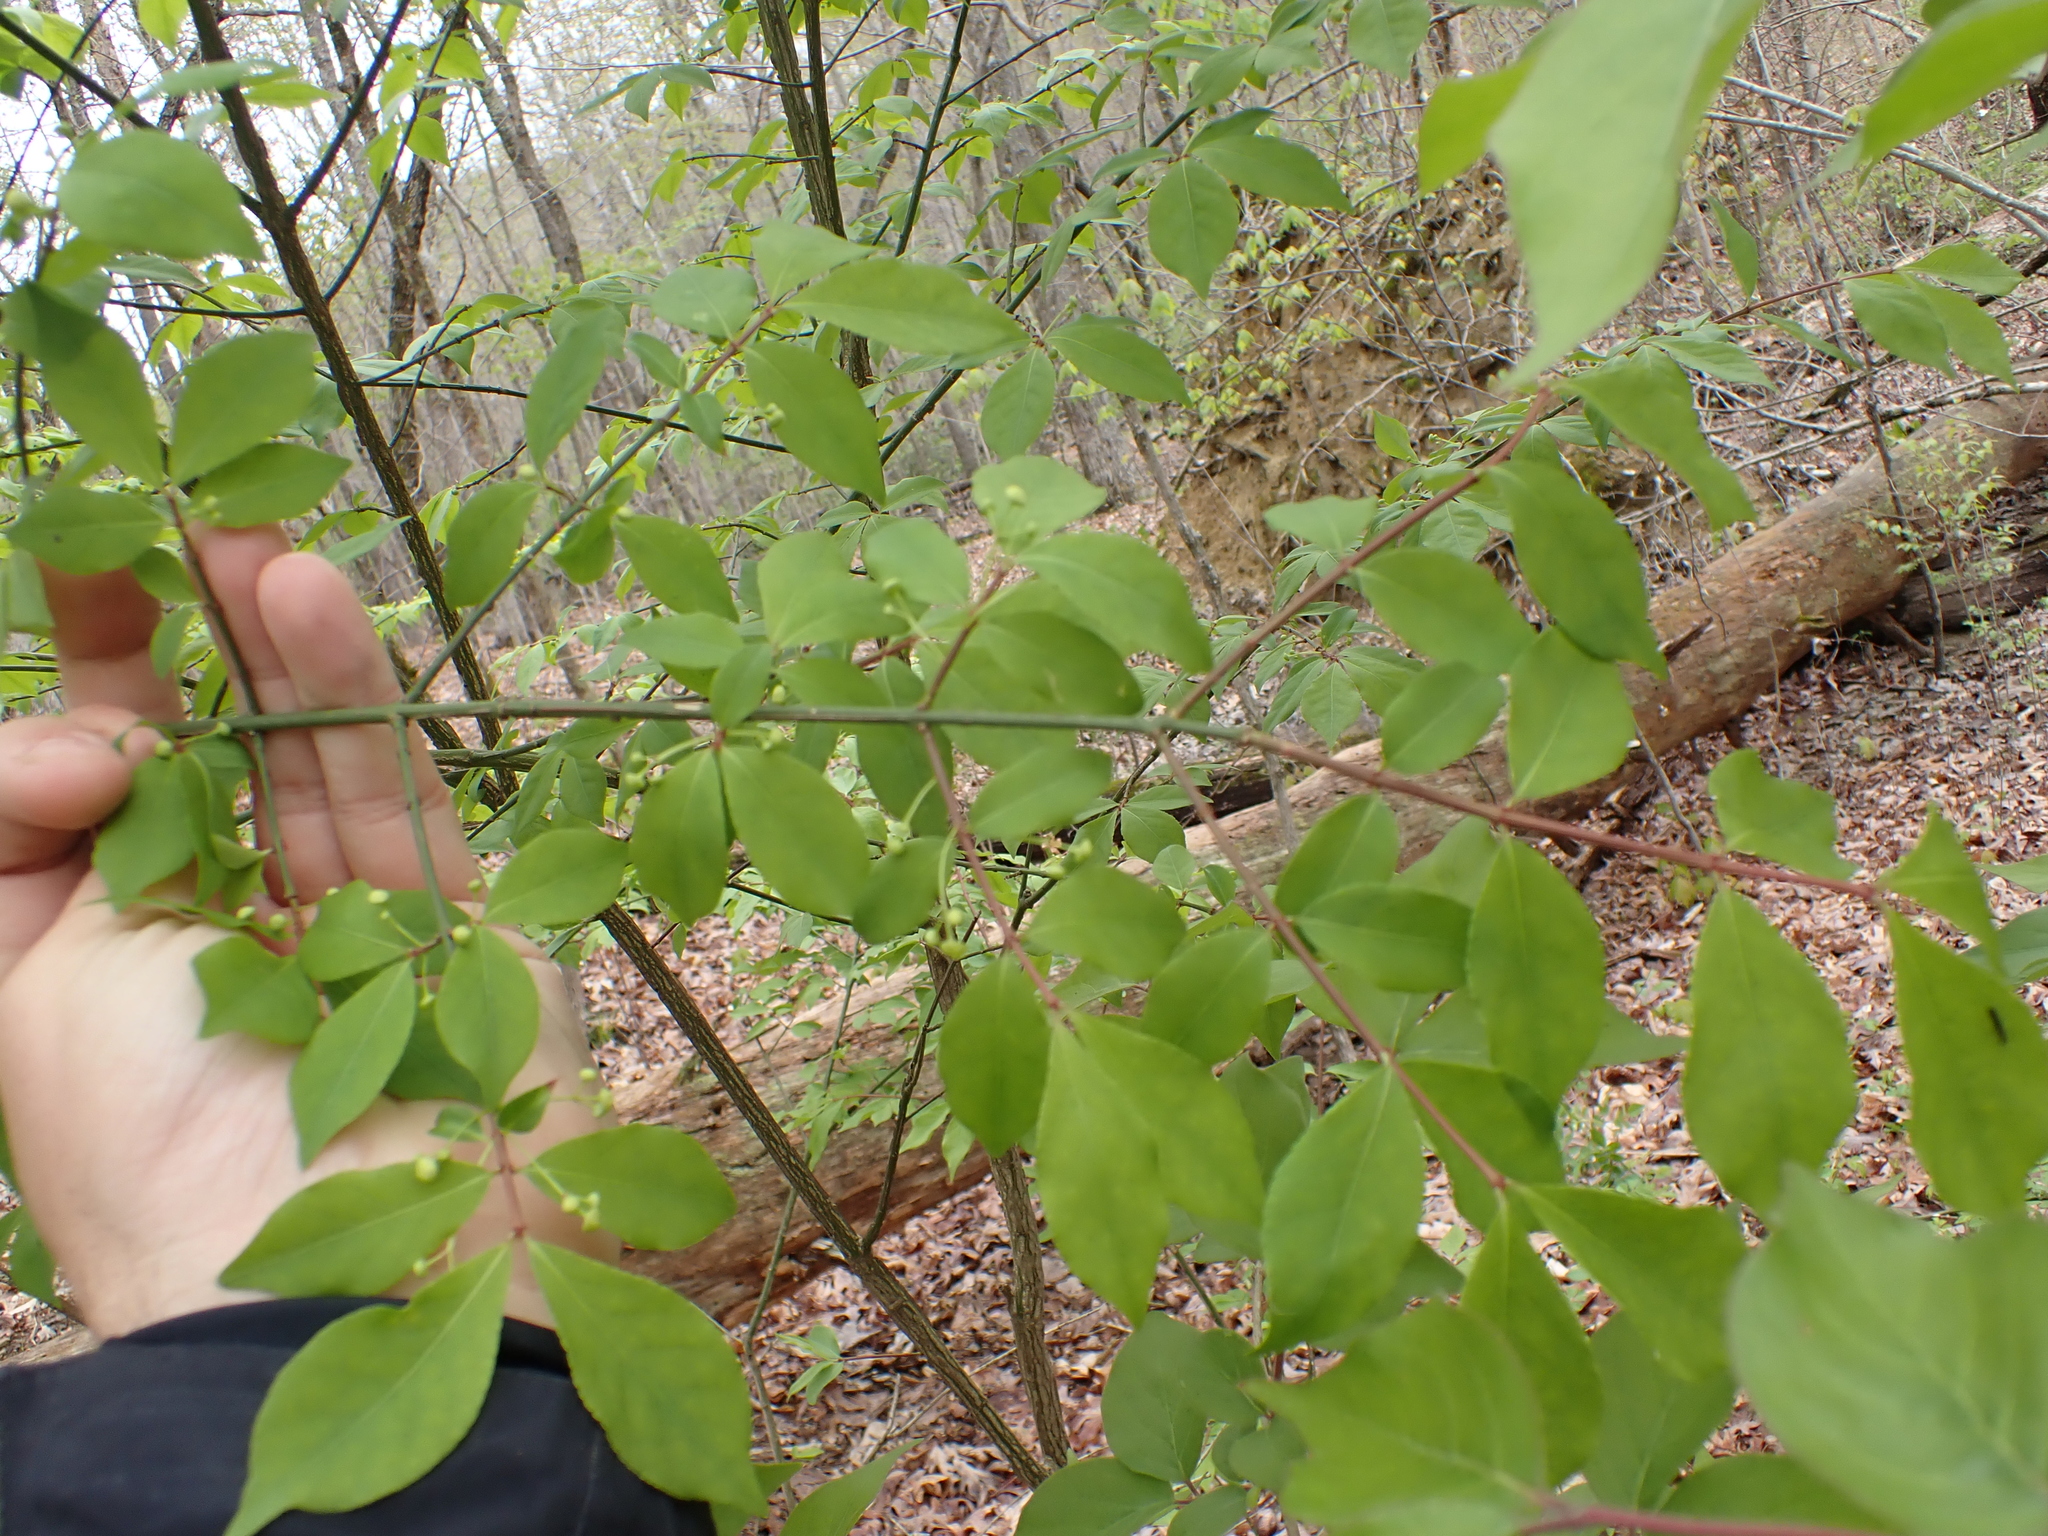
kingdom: Plantae
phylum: Tracheophyta
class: Magnoliopsida
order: Celastrales
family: Celastraceae
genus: Euonymus
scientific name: Euonymus alatus
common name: Winged euonymus
